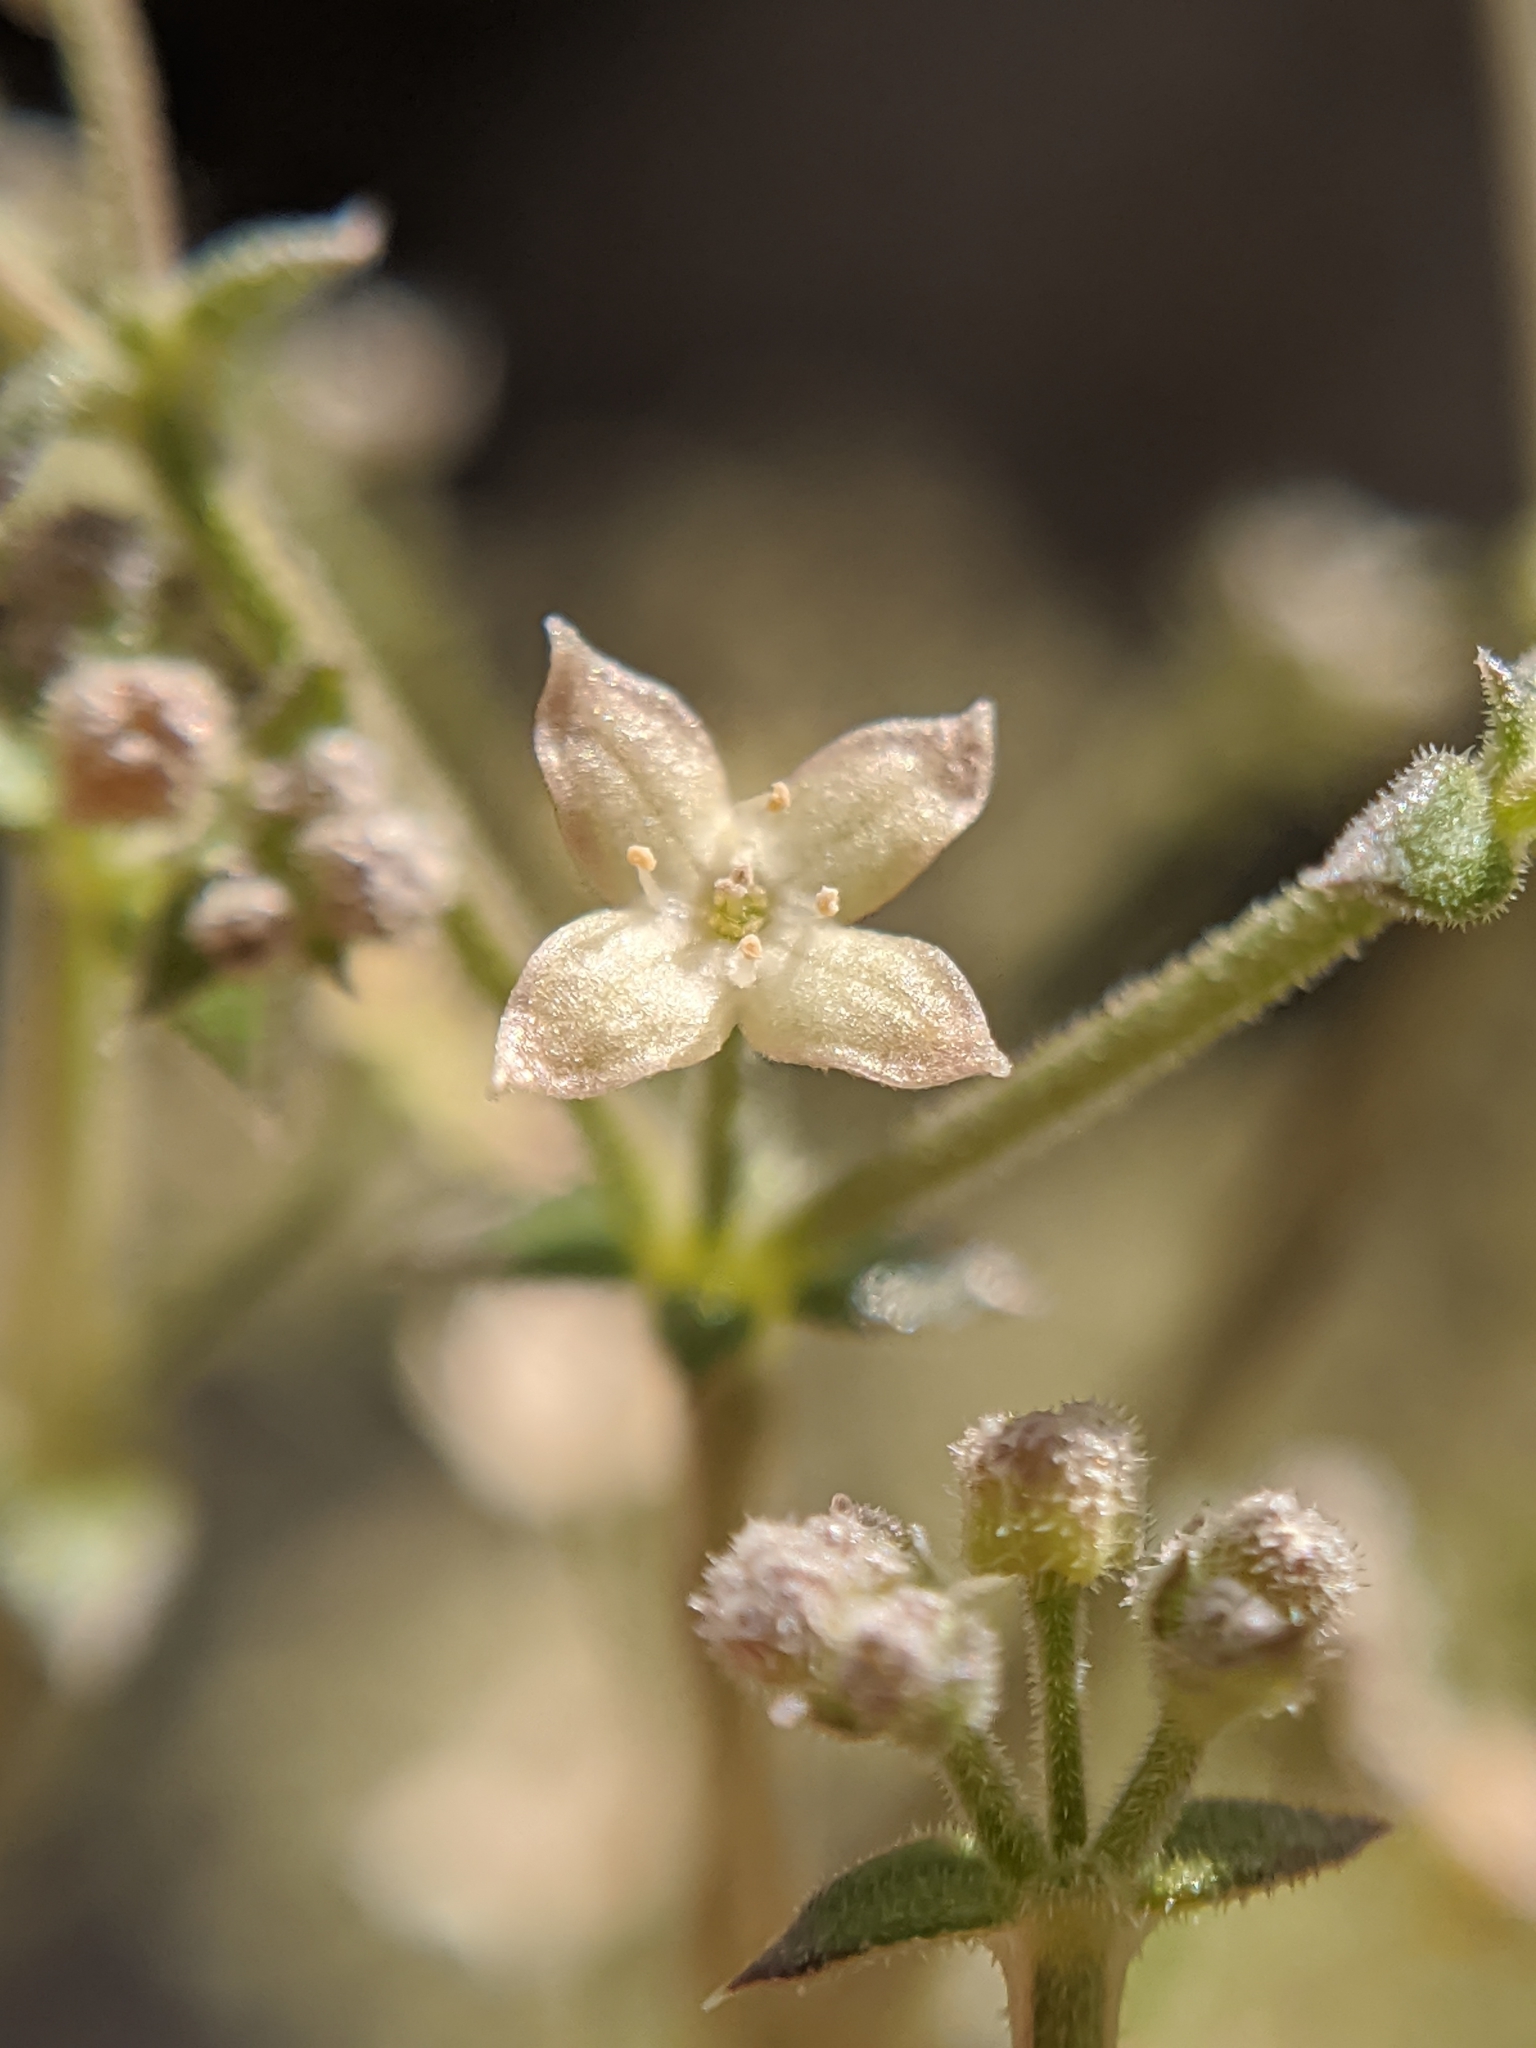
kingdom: Plantae
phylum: Tracheophyta
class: Magnoliopsida
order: Gentianales
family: Rubiaceae
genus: Galium
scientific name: Galium stellatum
